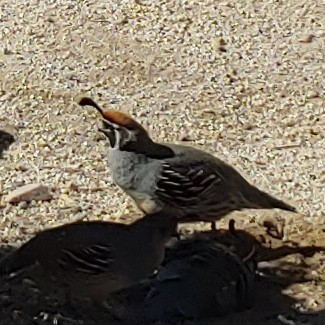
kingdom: Animalia
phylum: Chordata
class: Aves
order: Galliformes
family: Odontophoridae
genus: Callipepla
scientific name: Callipepla gambelii
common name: Gambel's quail
